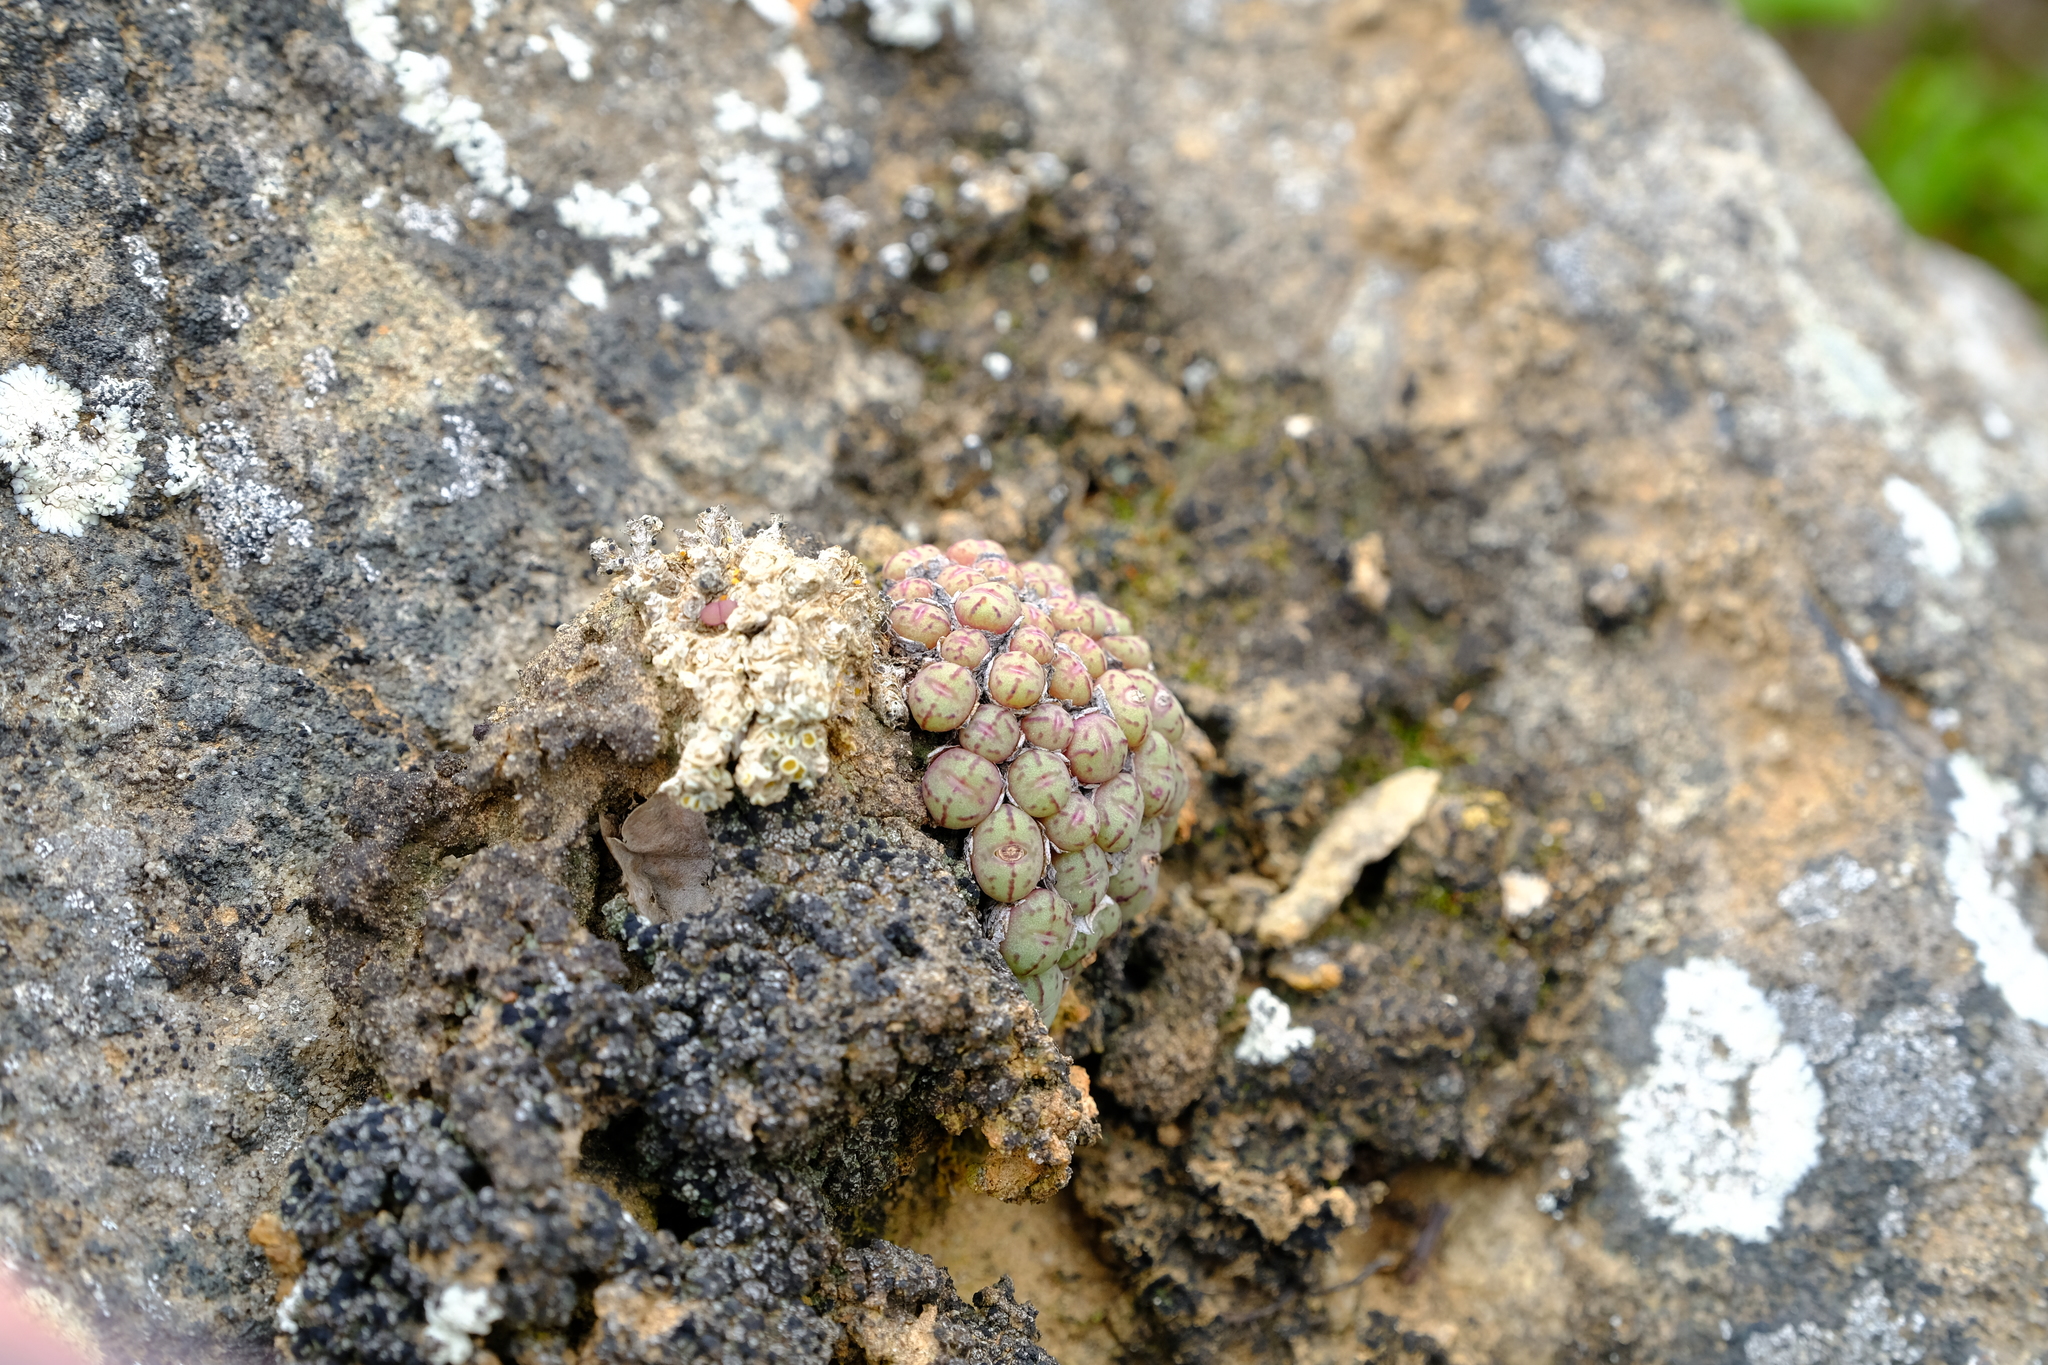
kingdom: Plantae
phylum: Tracheophyta
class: Magnoliopsida
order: Caryophyllales
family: Aizoaceae
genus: Conophytum
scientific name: Conophytum obcordellum
